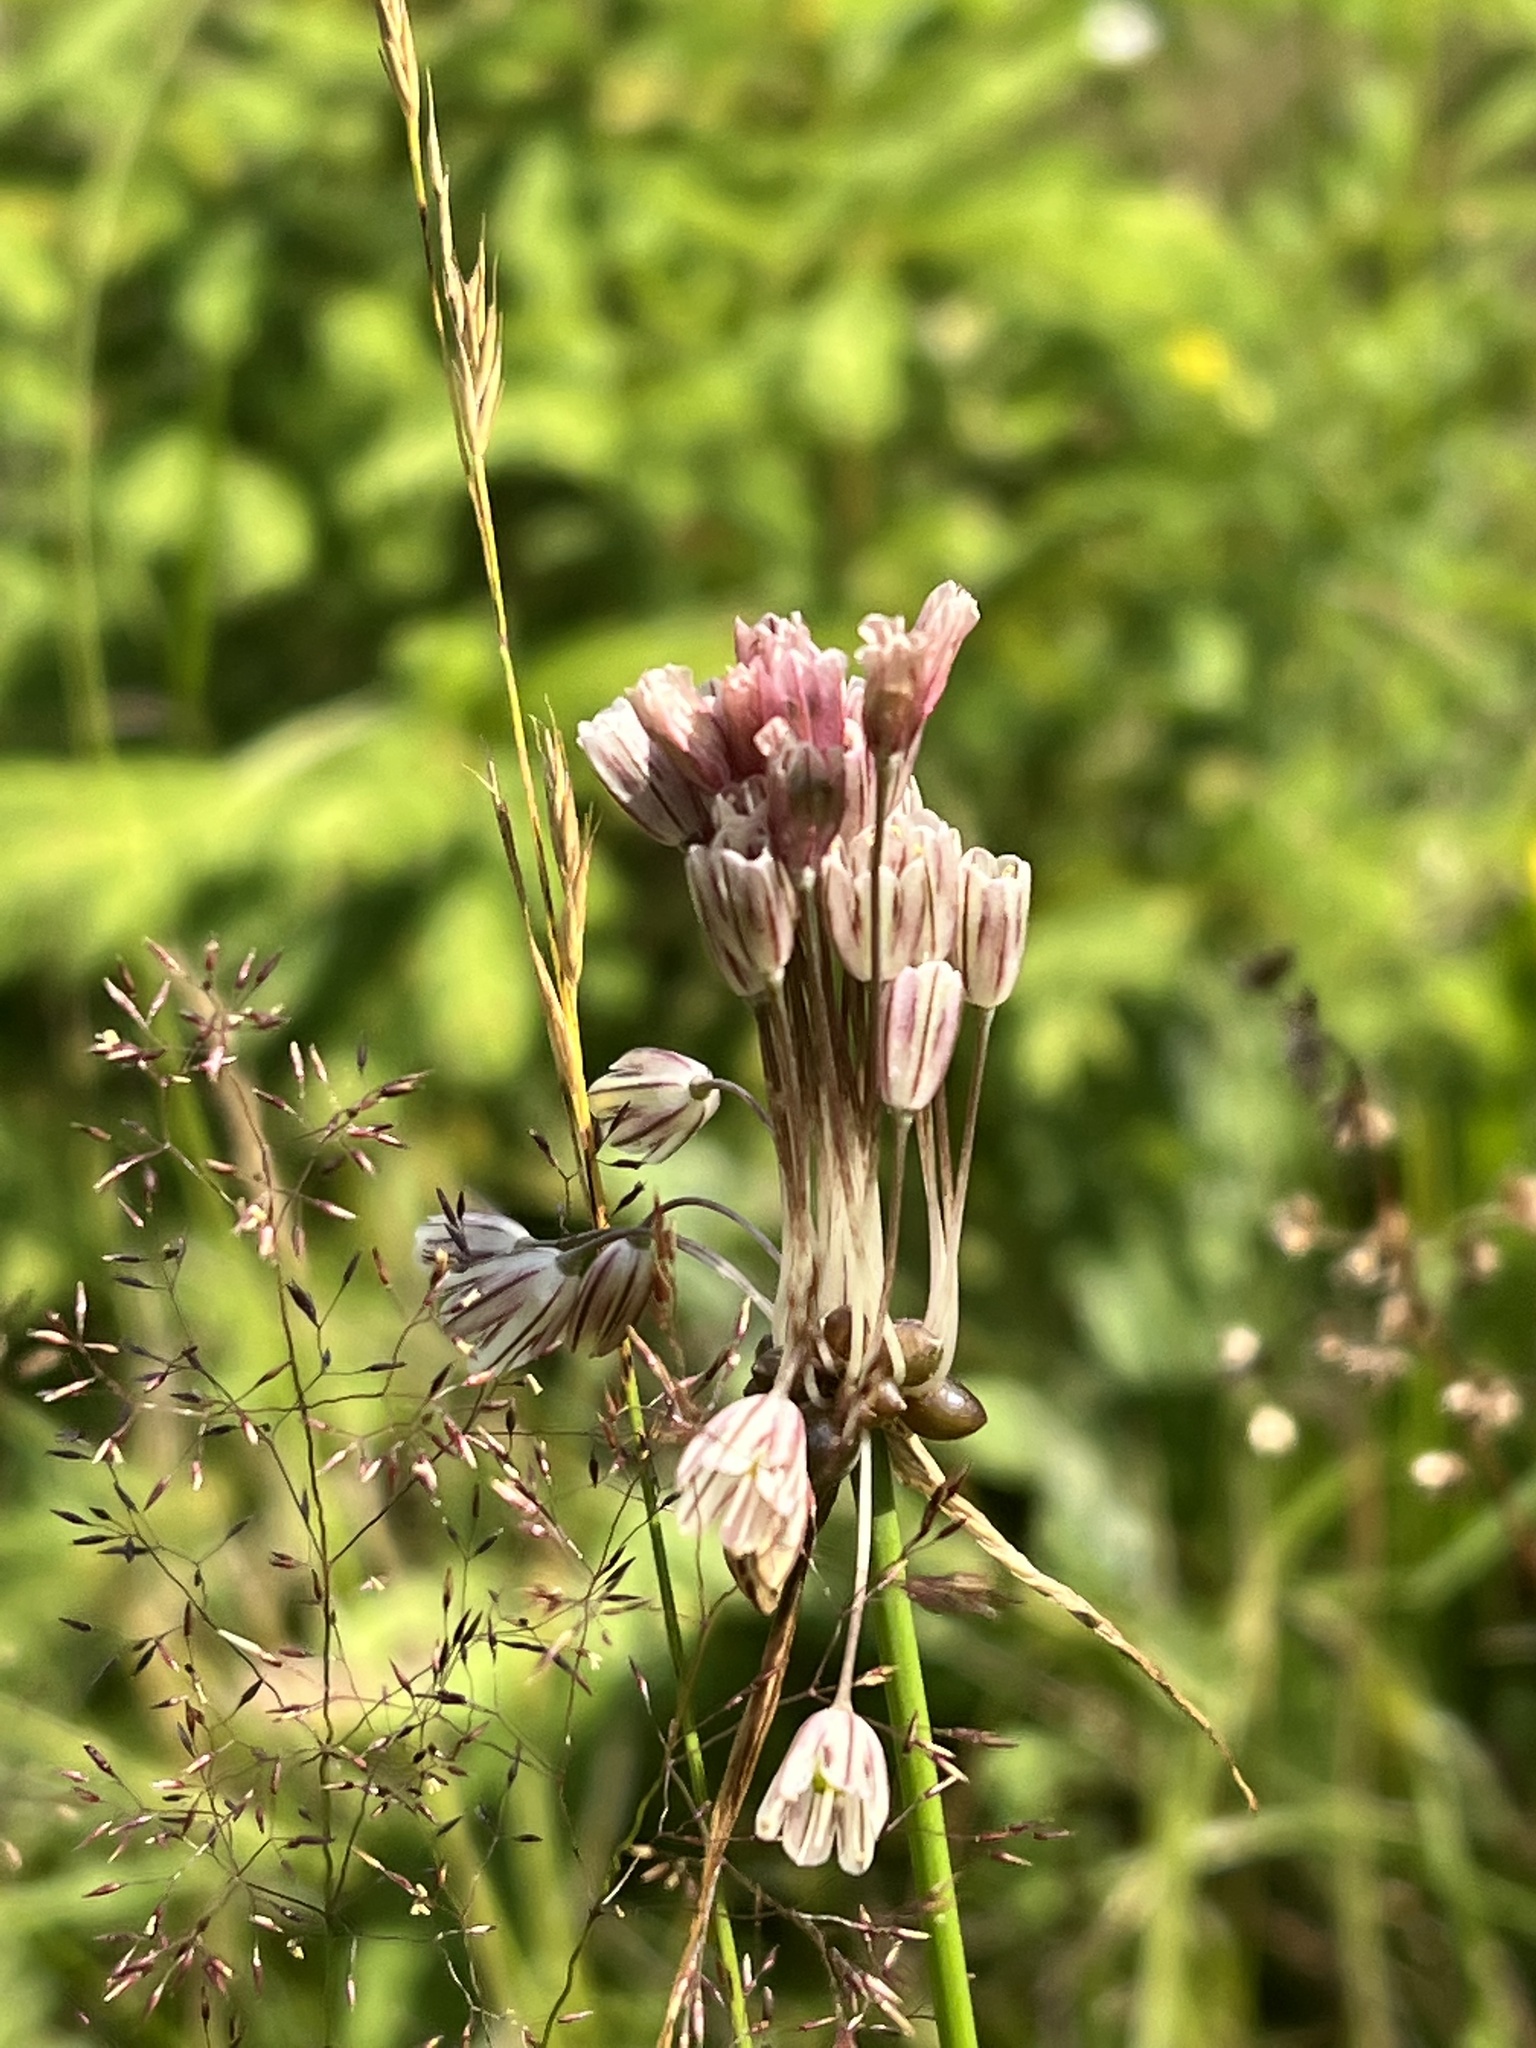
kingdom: Plantae
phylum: Tracheophyta
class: Liliopsida
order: Asparagales
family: Amaryllidaceae
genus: Allium
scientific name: Allium oleraceum
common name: Field garlic
